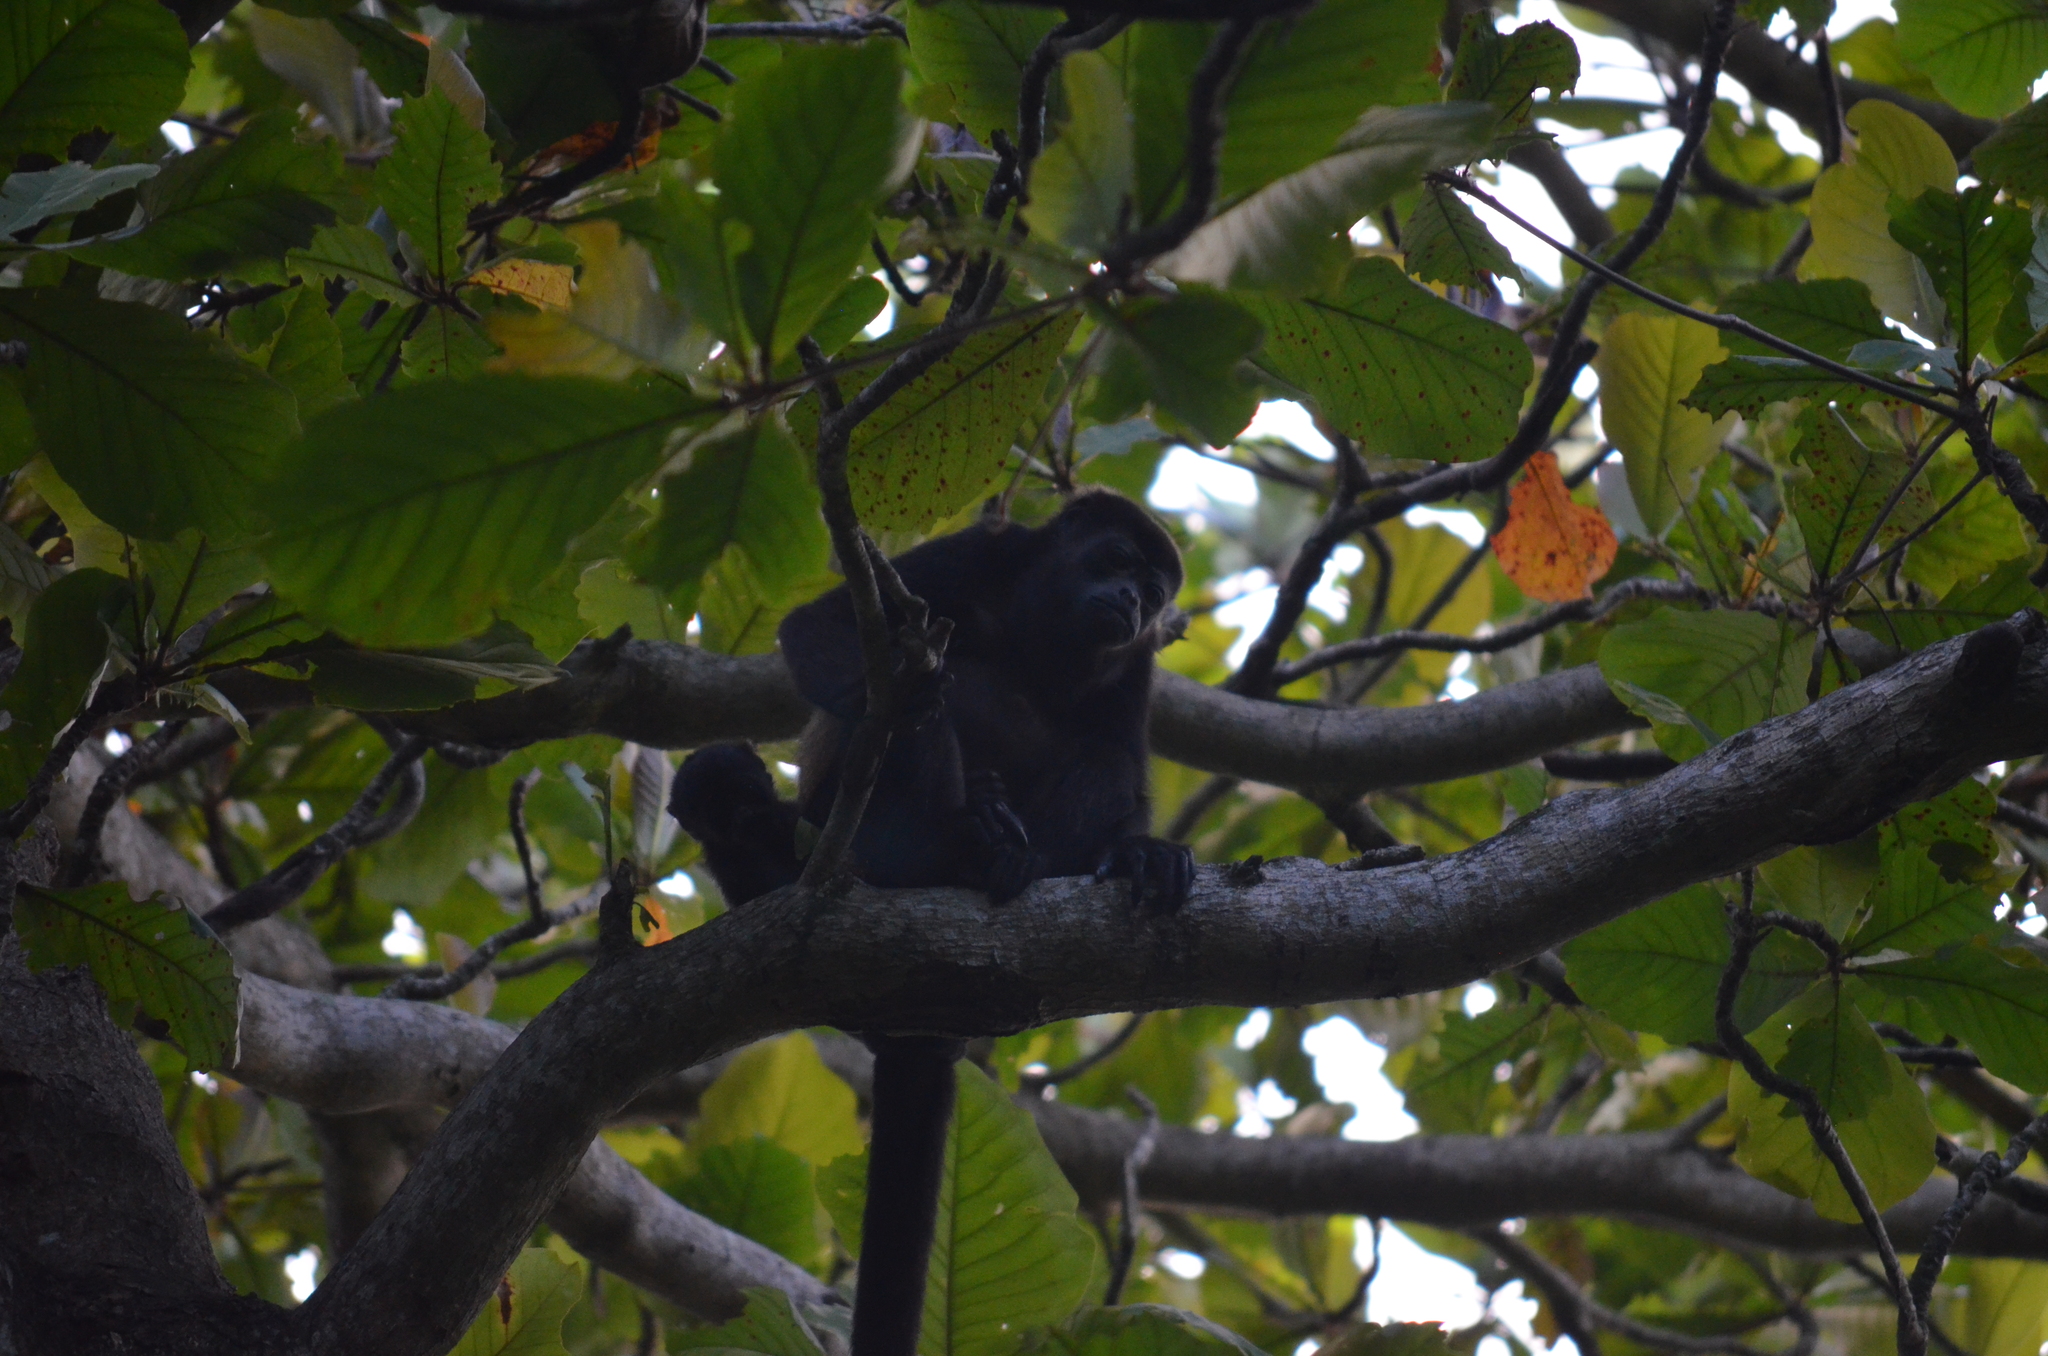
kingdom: Animalia
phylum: Chordata
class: Mammalia
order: Primates
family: Atelidae
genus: Alouatta
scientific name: Alouatta palliata
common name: Mantled howler
